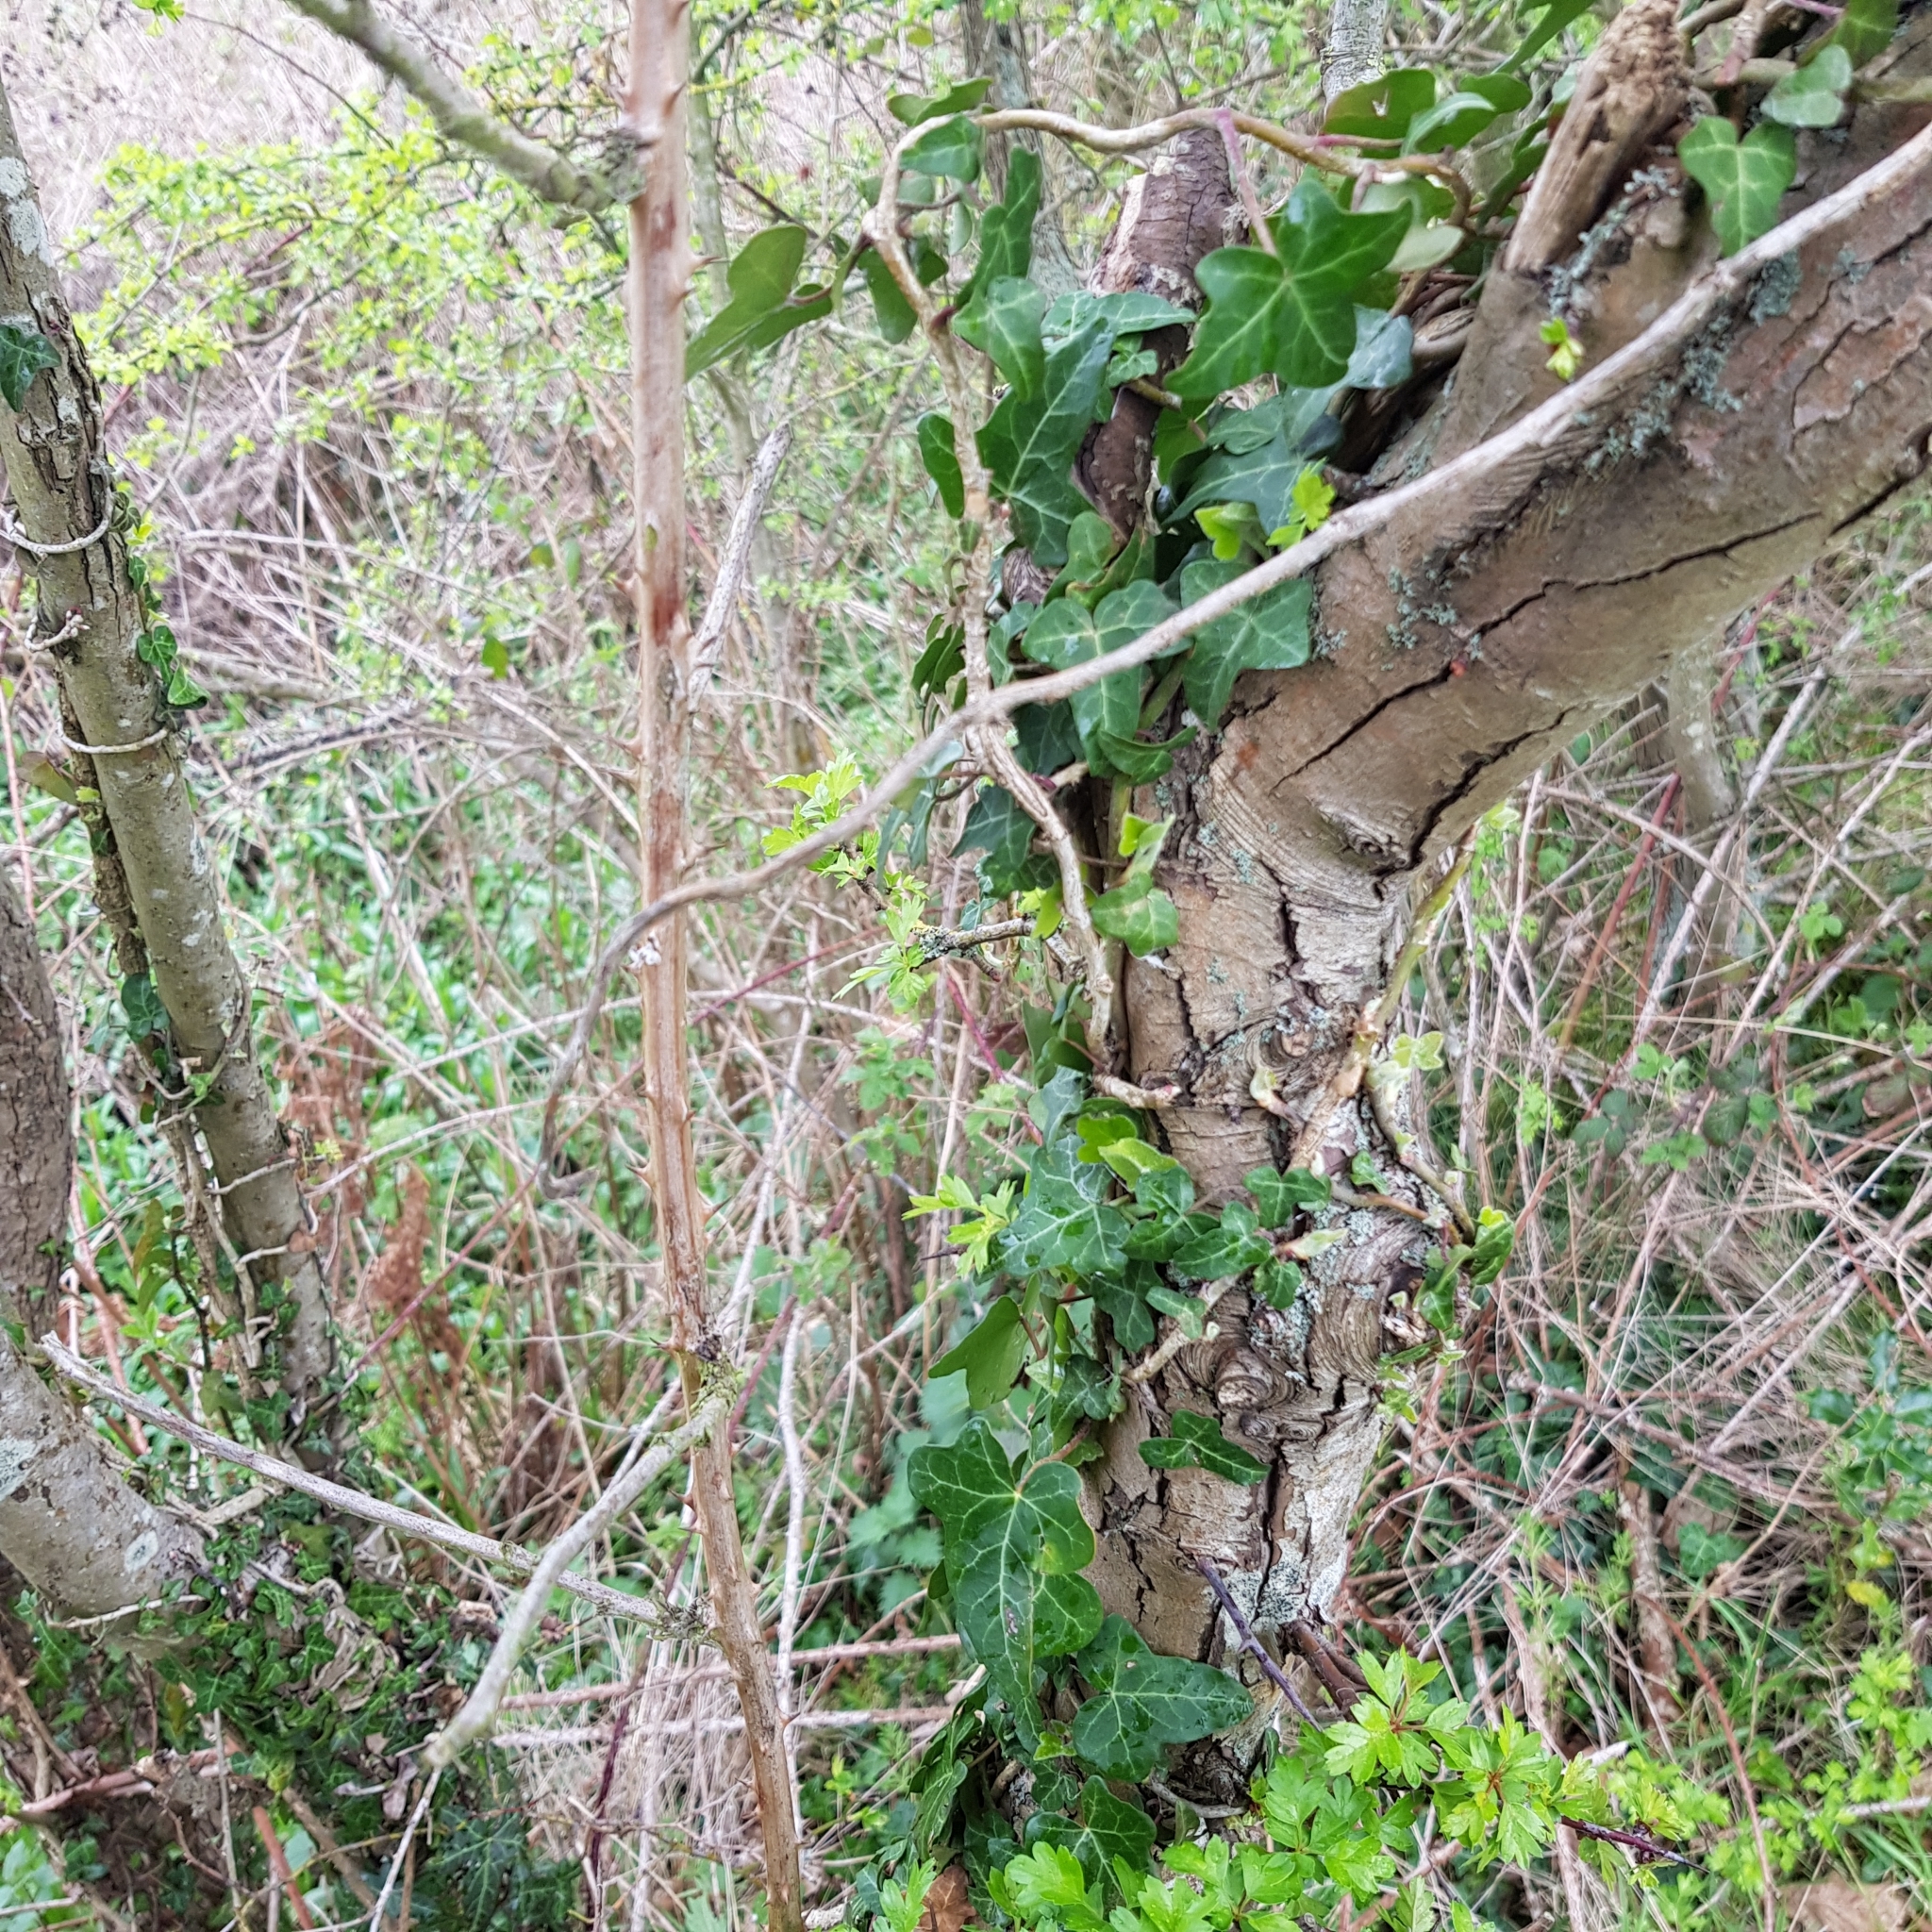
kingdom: Plantae
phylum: Tracheophyta
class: Magnoliopsida
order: Apiales
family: Araliaceae
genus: Hedera
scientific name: Hedera helix
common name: Ivy
